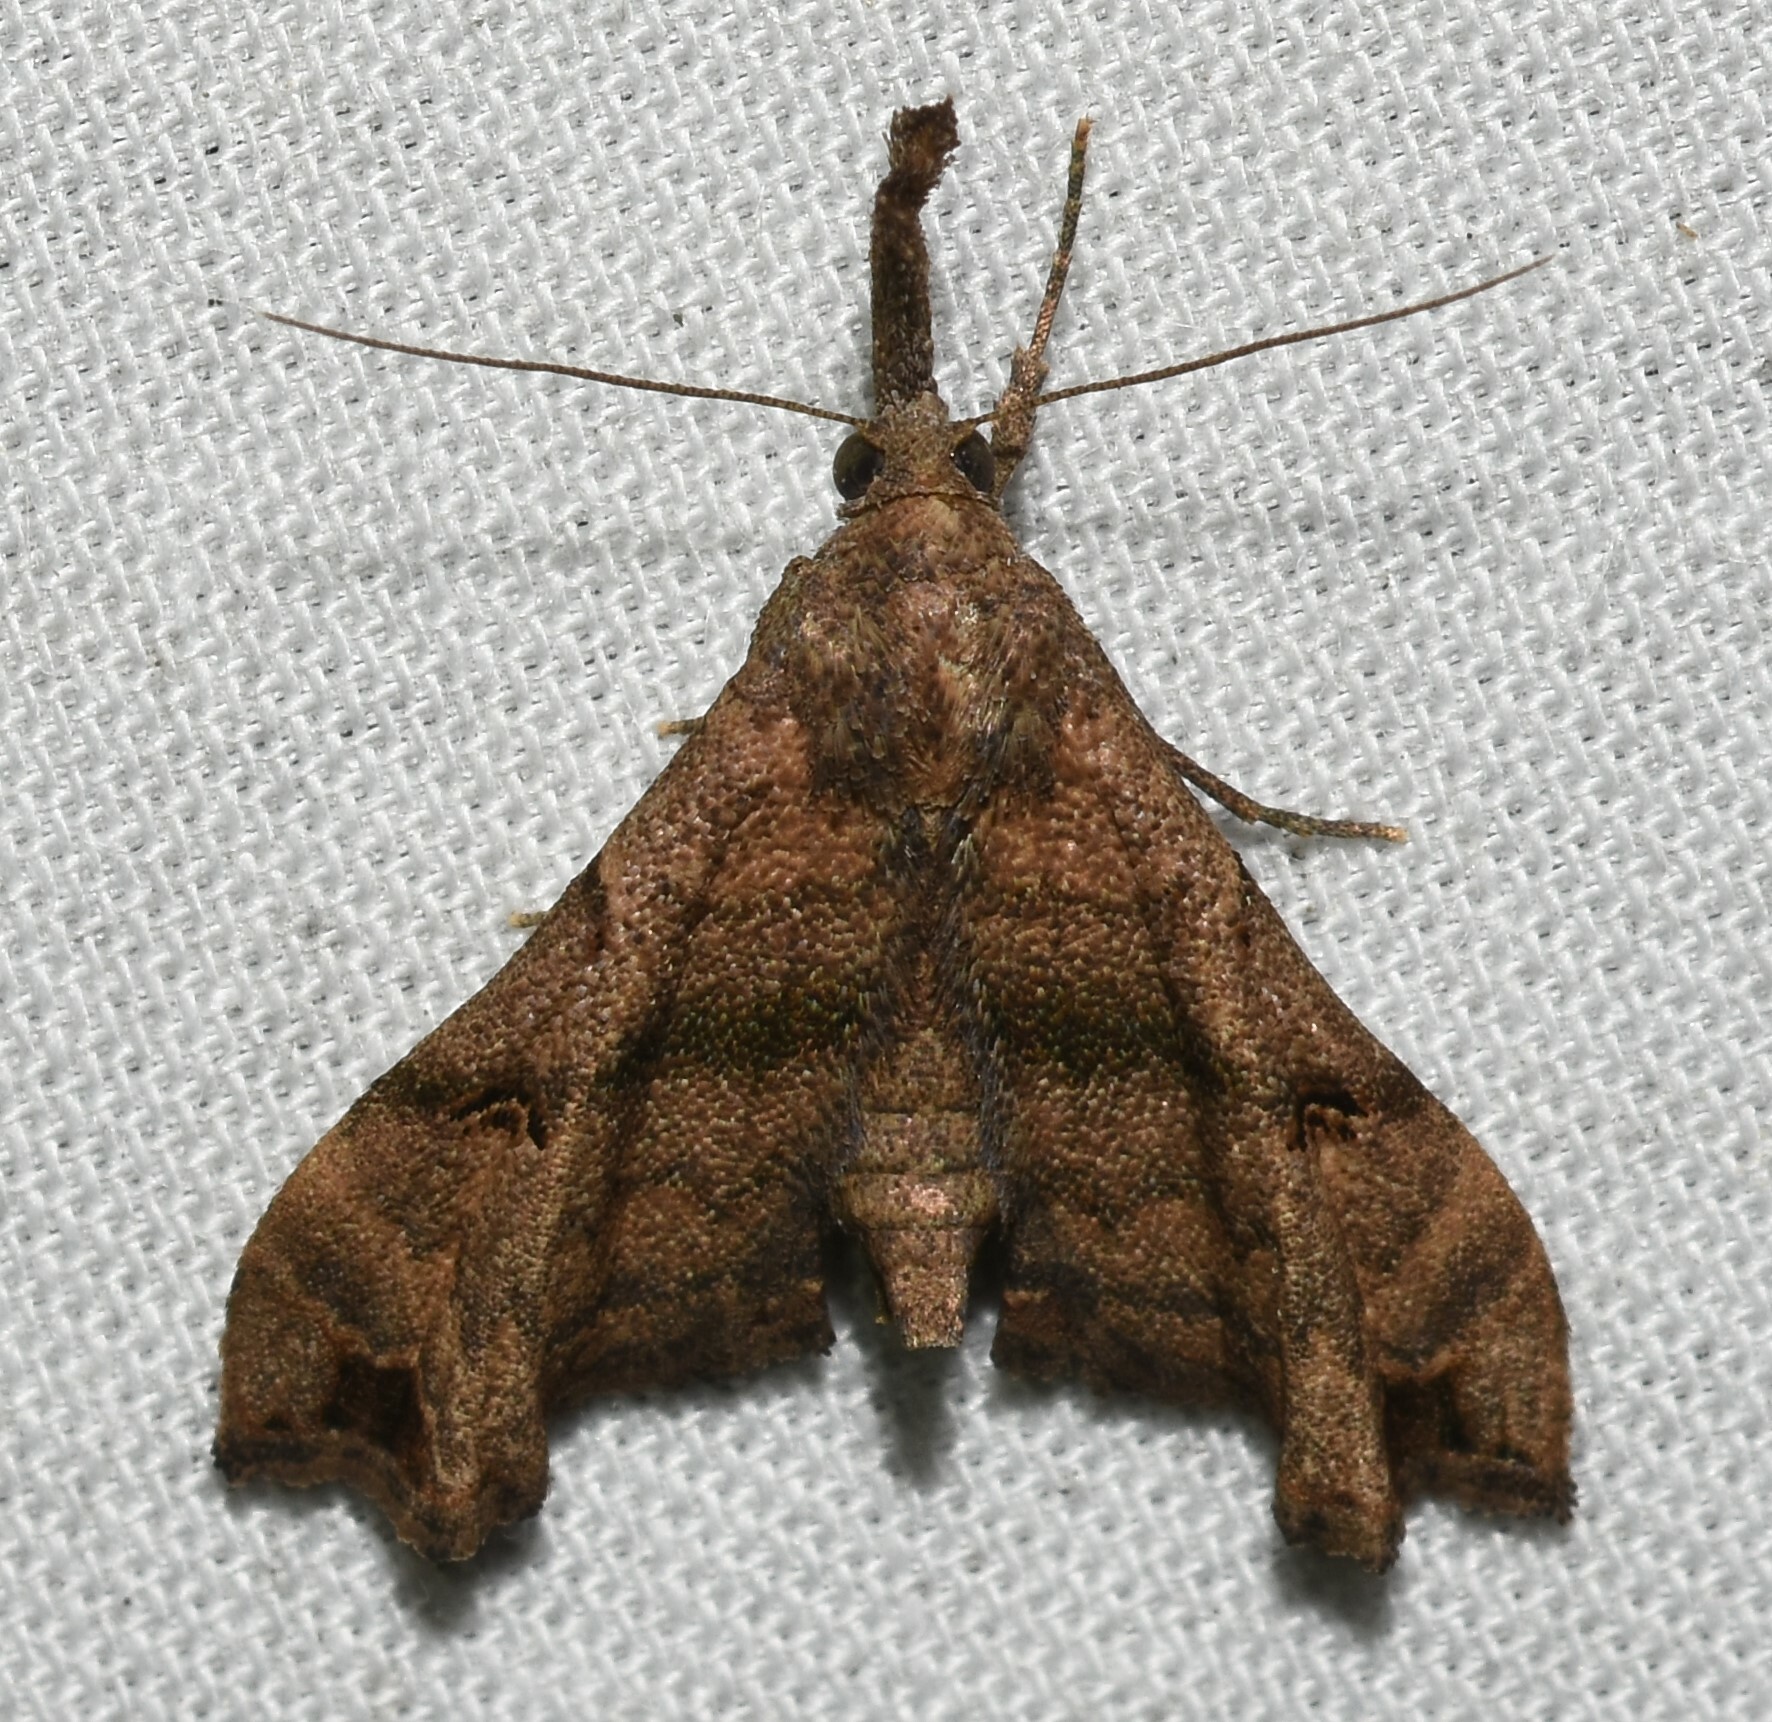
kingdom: Animalia
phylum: Arthropoda
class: Insecta
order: Lepidoptera
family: Erebidae
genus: Palthis
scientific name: Palthis asopialis
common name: Faint-spotted palthis moth
